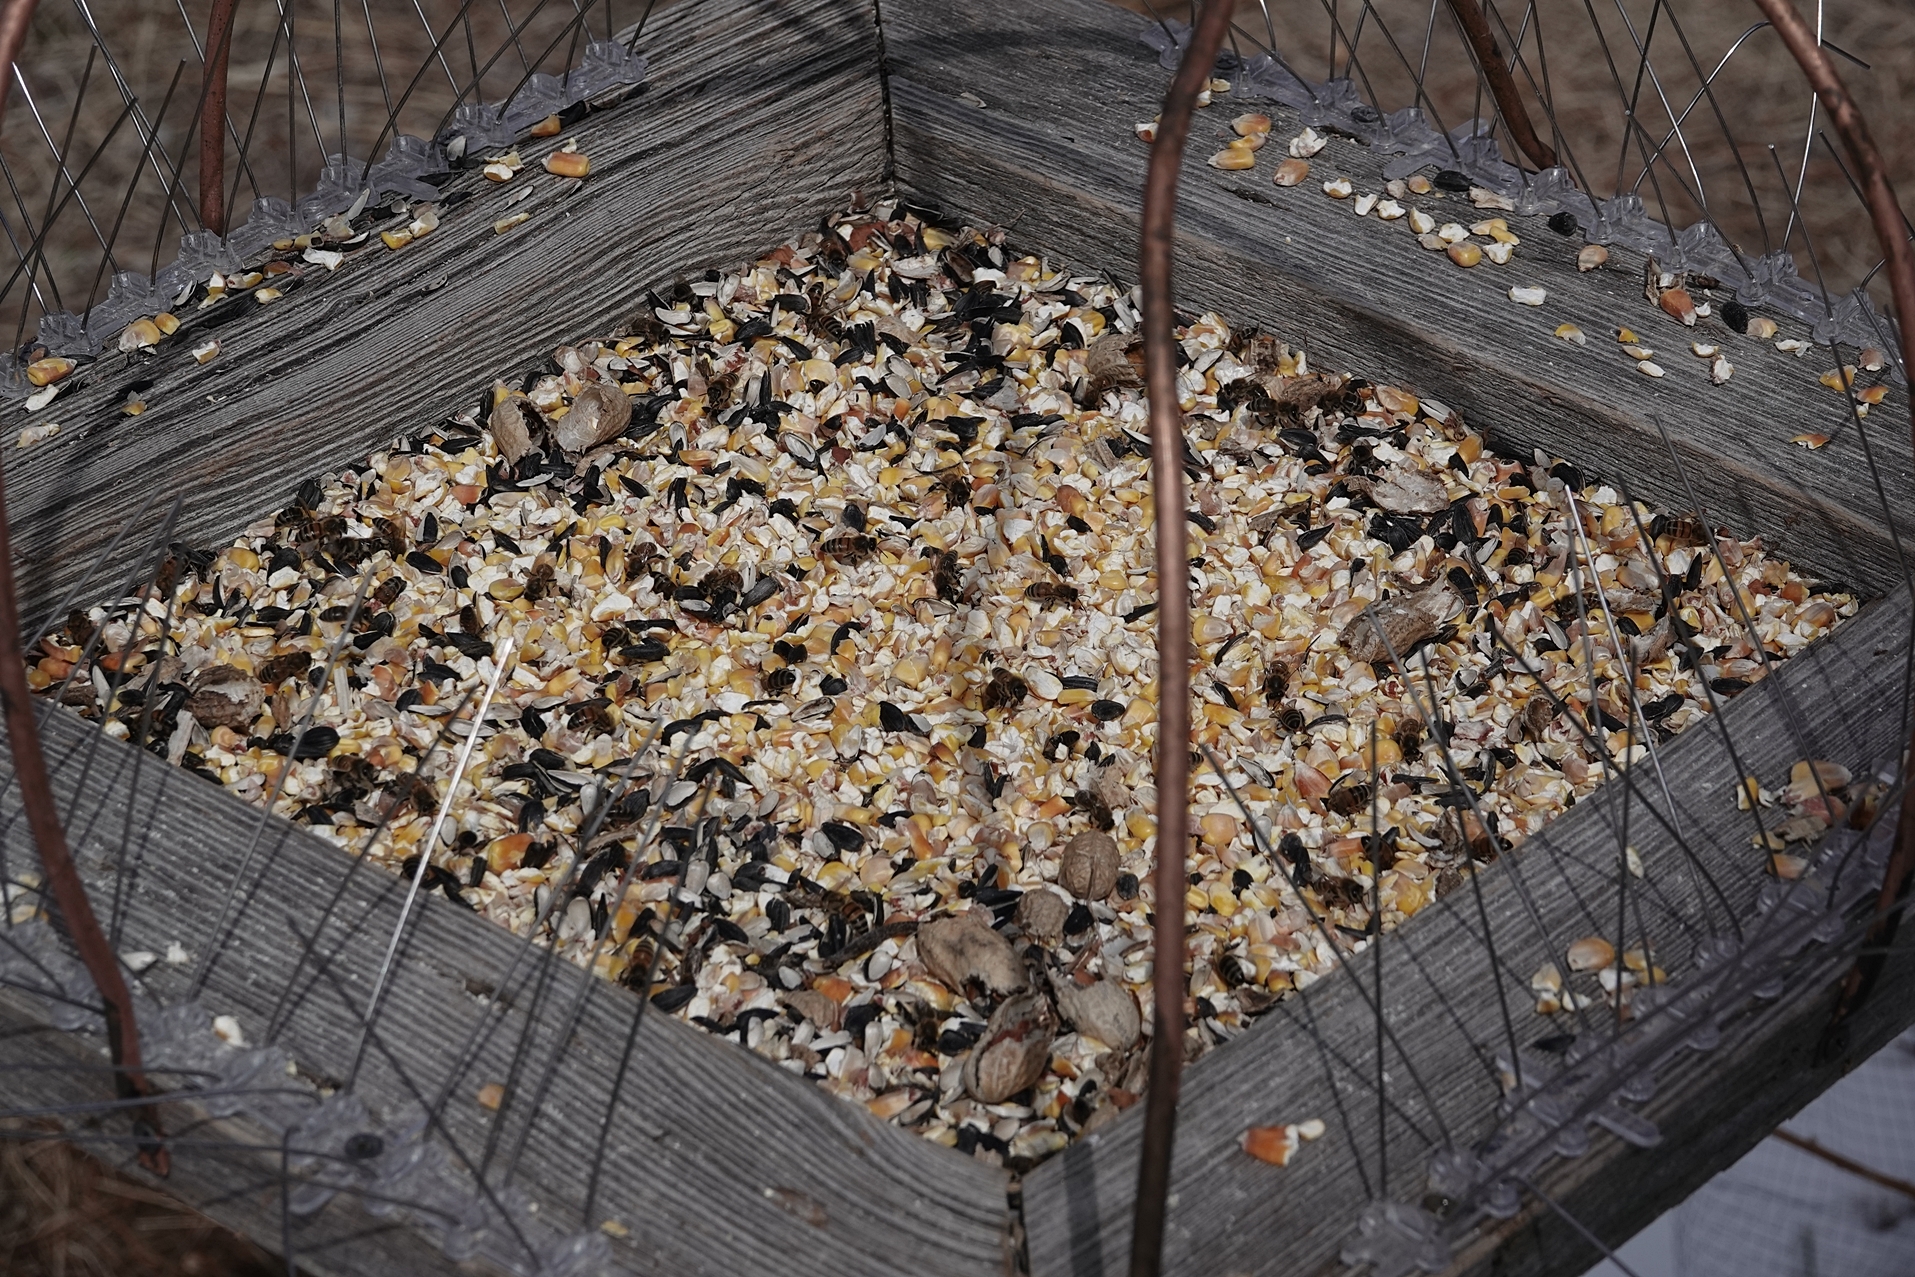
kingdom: Animalia
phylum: Arthropoda
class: Insecta
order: Hymenoptera
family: Apidae
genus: Apis
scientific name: Apis mellifera
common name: Honey bee
